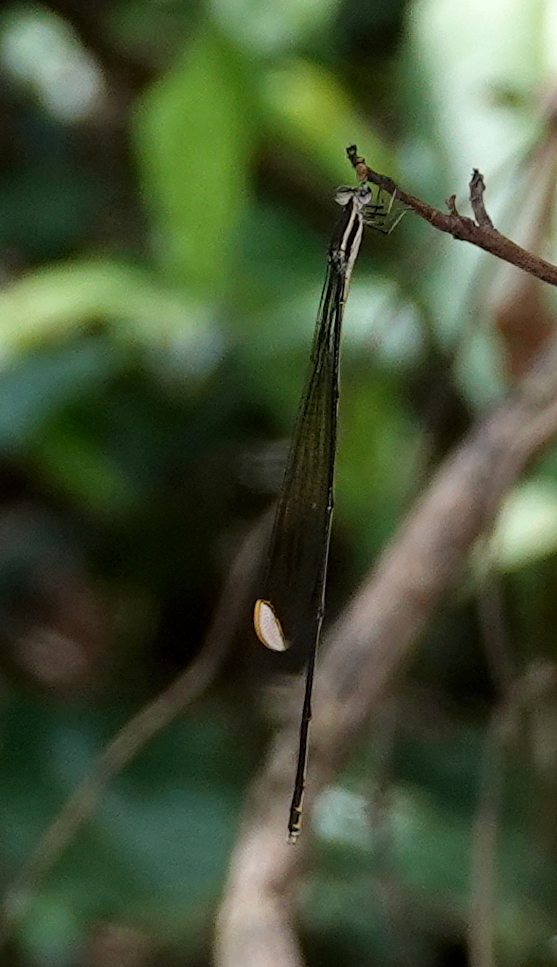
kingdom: Animalia
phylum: Arthropoda
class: Insecta
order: Odonata
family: Coenagrionidae
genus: Mecistogaster
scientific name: Mecistogaster ornata
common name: Ornate helicopter
